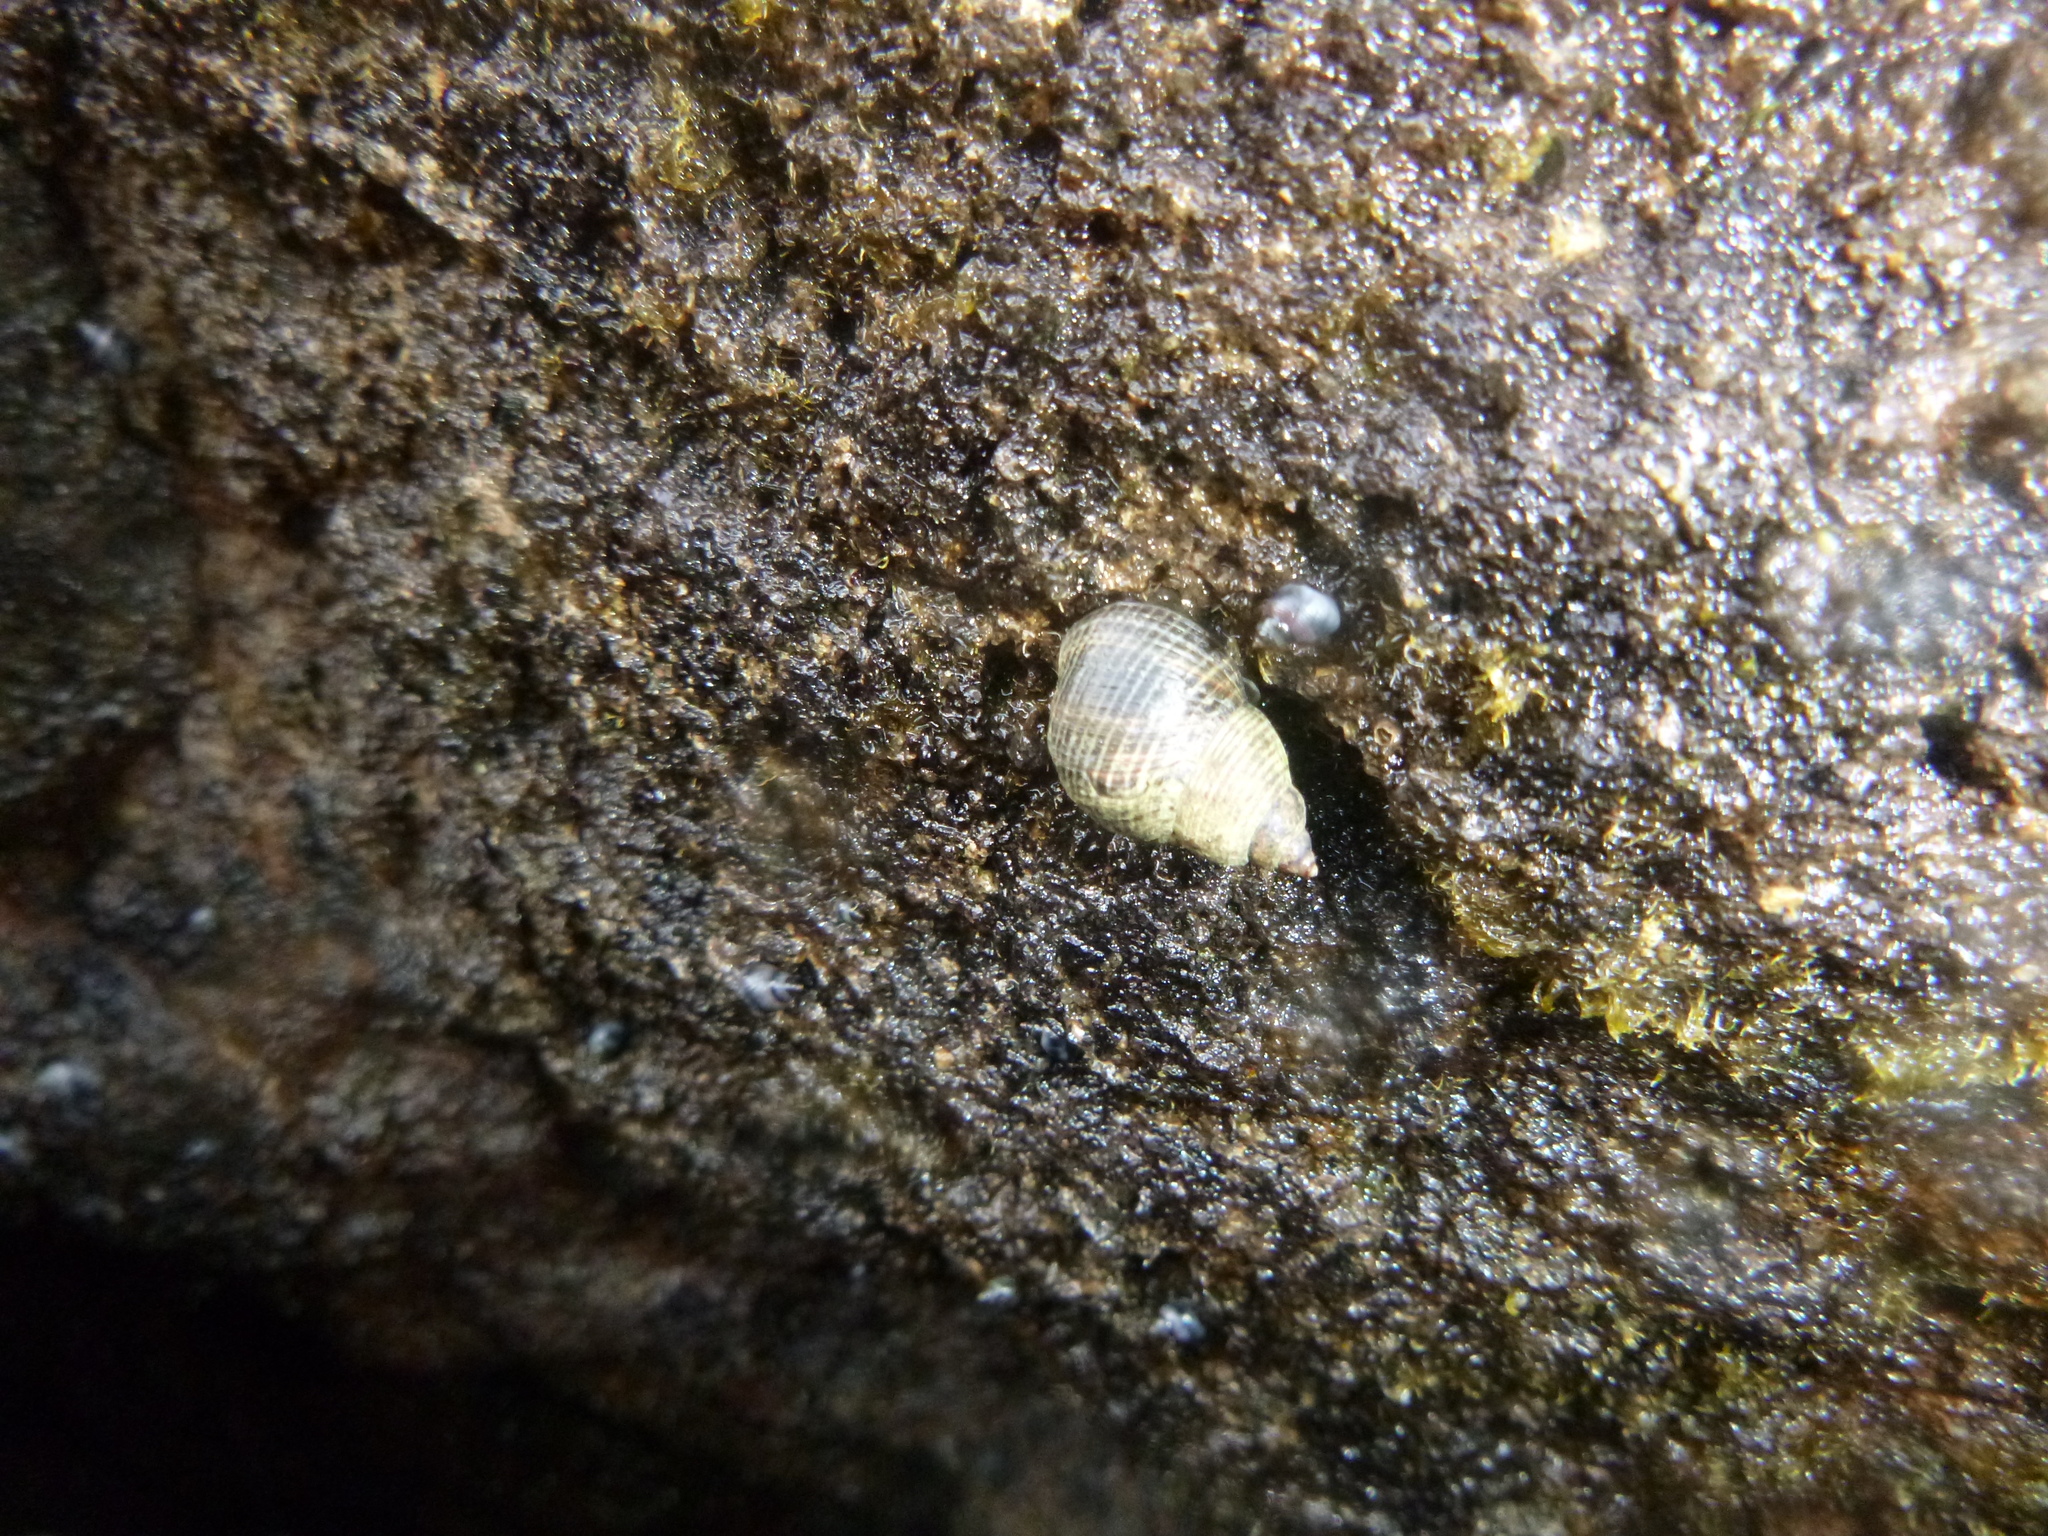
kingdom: Animalia
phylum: Mollusca
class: Gastropoda
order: Littorinimorpha
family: Littorinidae
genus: Austrolittorina
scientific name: Austrolittorina cincta
